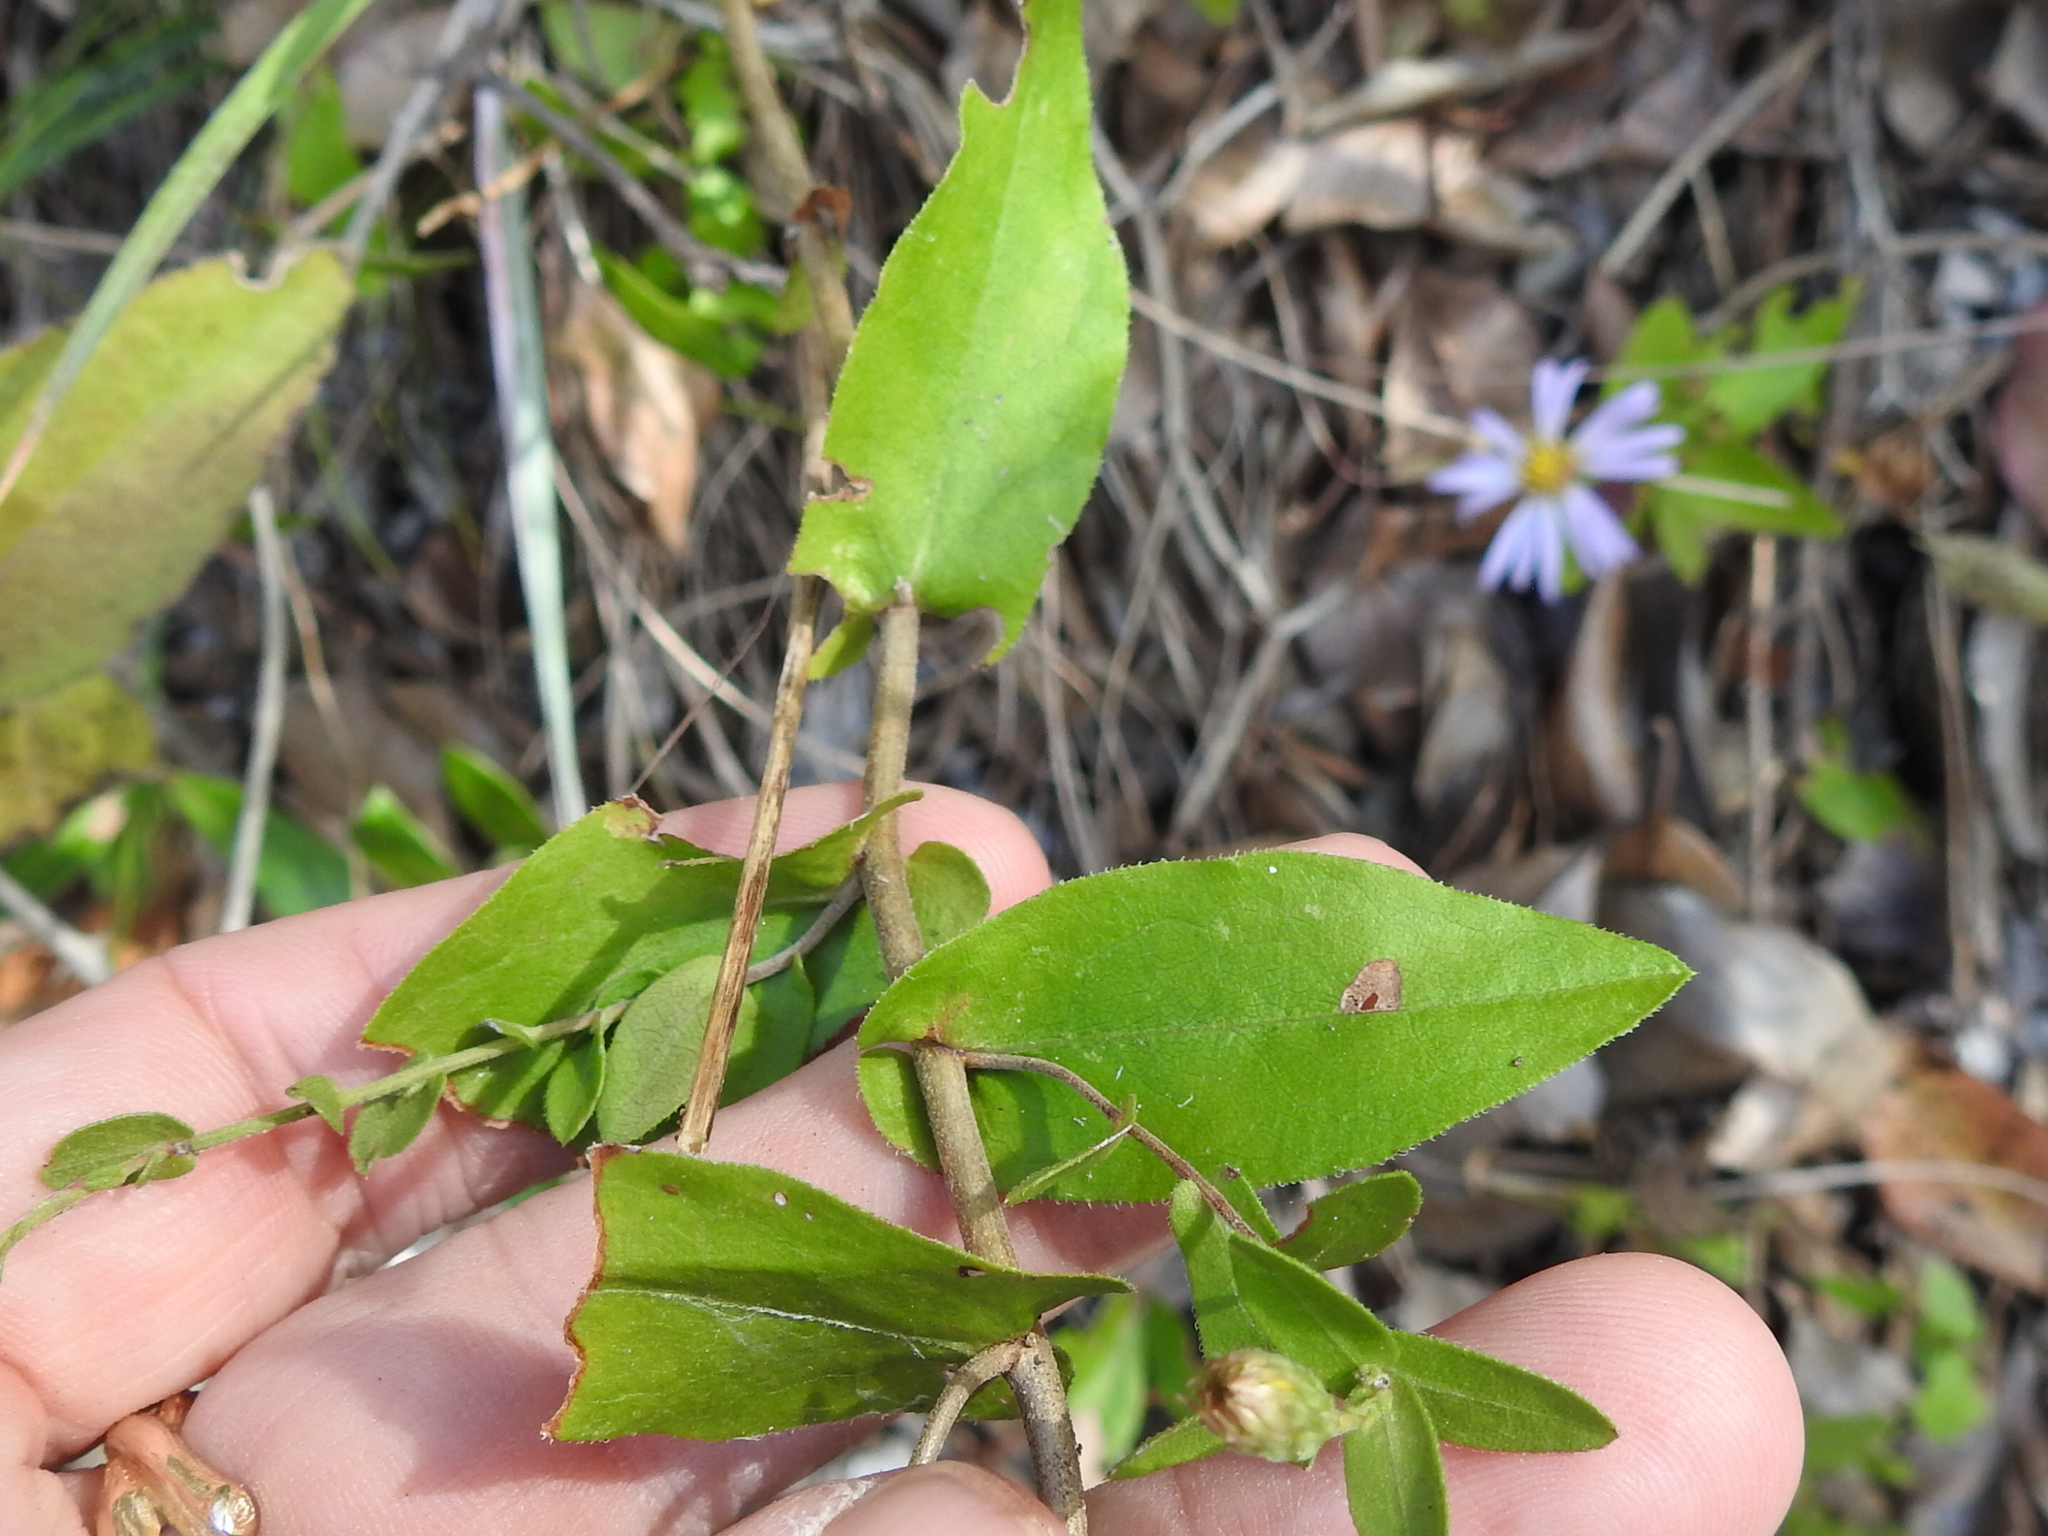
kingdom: Plantae
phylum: Tracheophyta
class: Magnoliopsida
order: Asterales
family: Asteraceae
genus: Symphyotrichum
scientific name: Symphyotrichum patens
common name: Late purple aster
